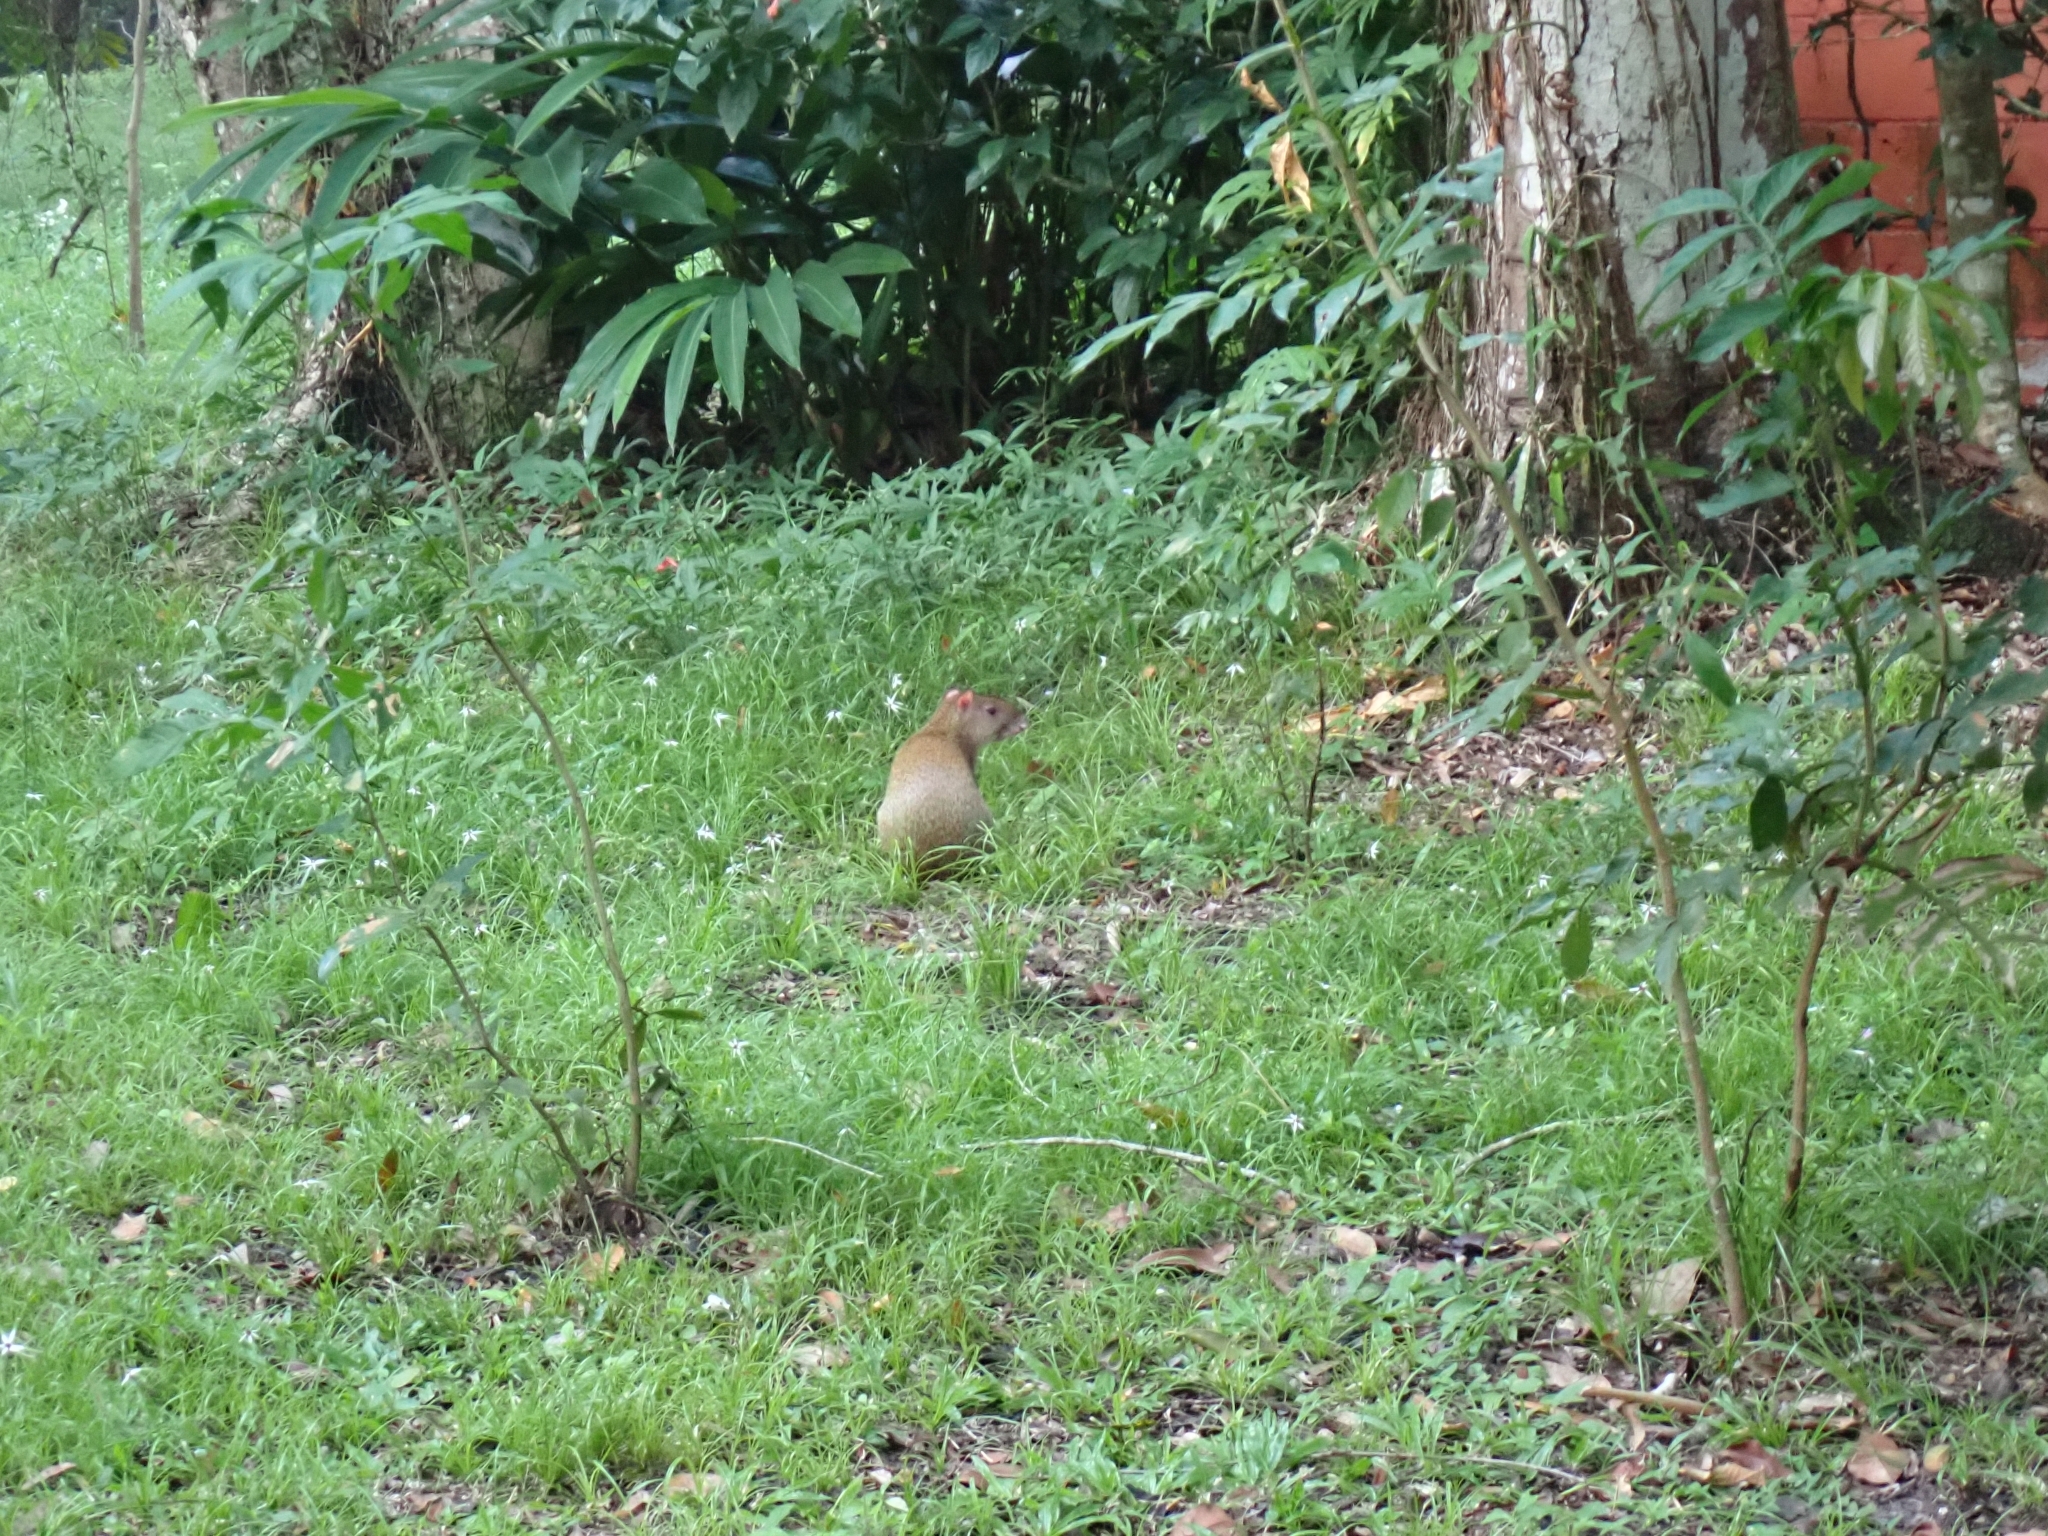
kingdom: Animalia
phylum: Chordata
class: Mammalia
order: Rodentia
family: Dasyproctidae
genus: Dasyprocta
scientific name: Dasyprocta punctata
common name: Central american agouti
